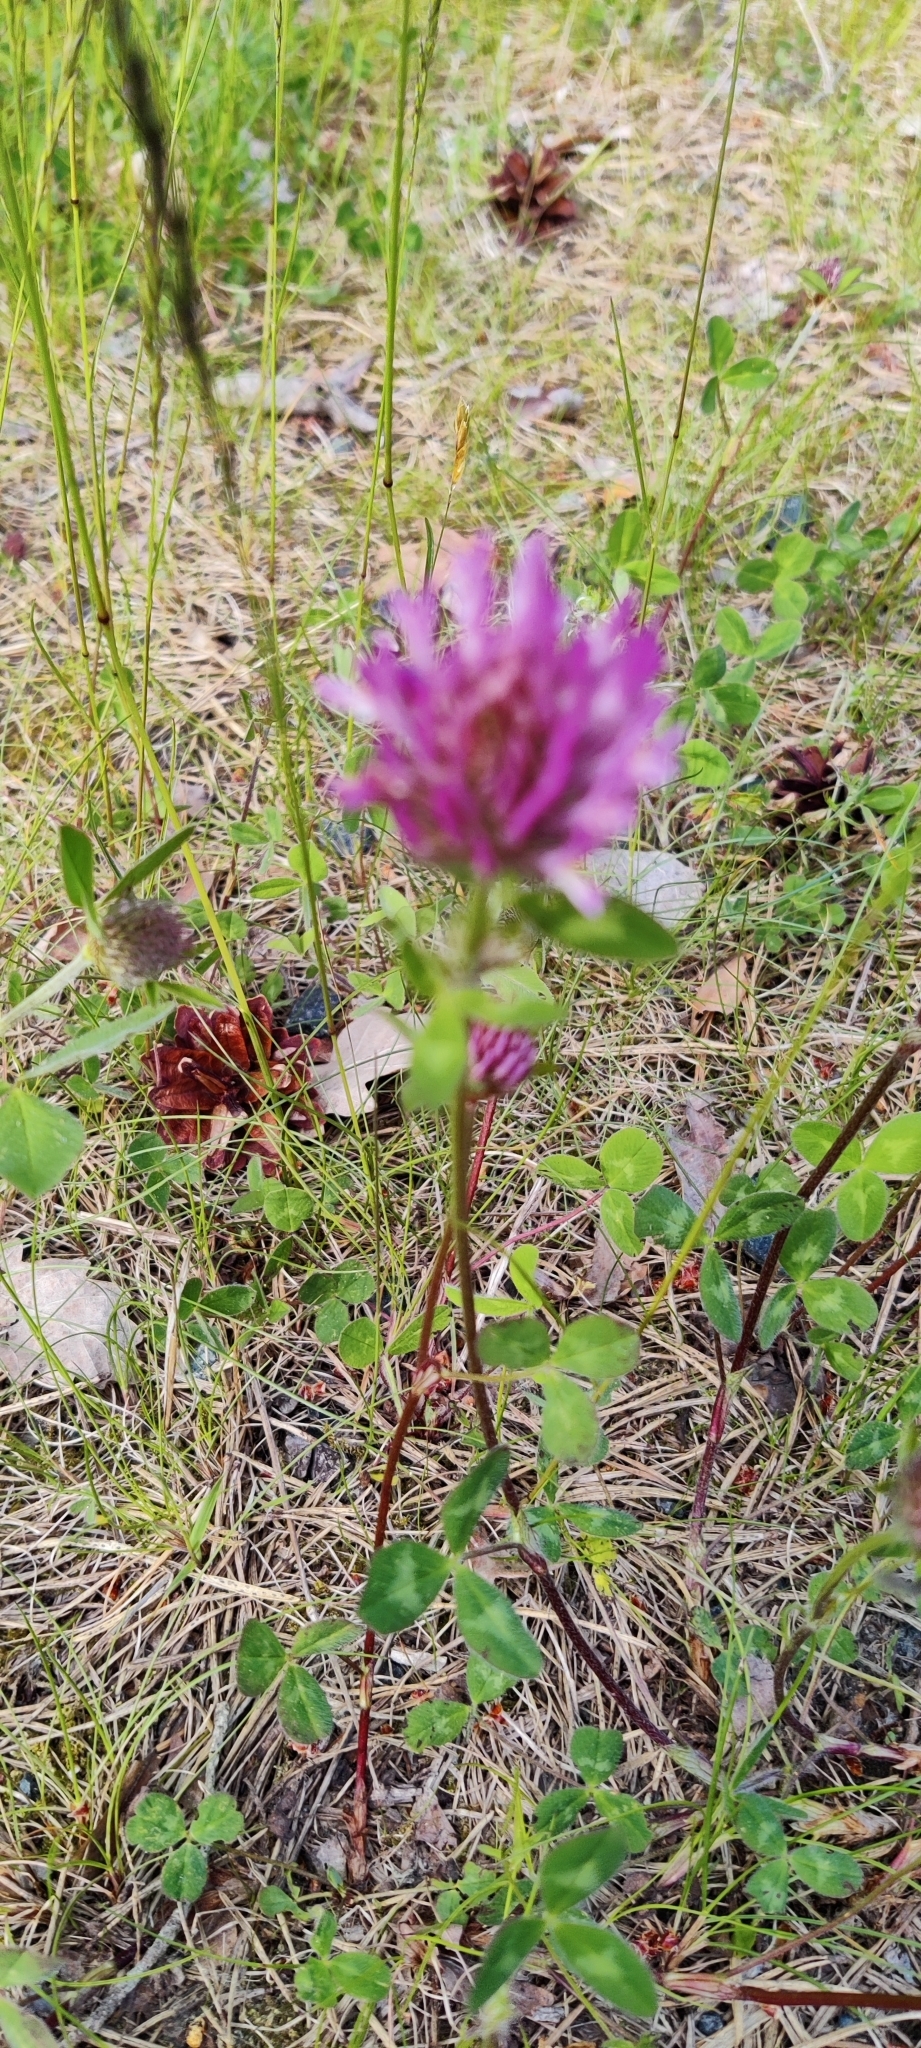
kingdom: Plantae
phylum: Tracheophyta
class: Magnoliopsida
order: Fabales
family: Fabaceae
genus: Trifolium
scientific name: Trifolium pratense
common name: Red clover
